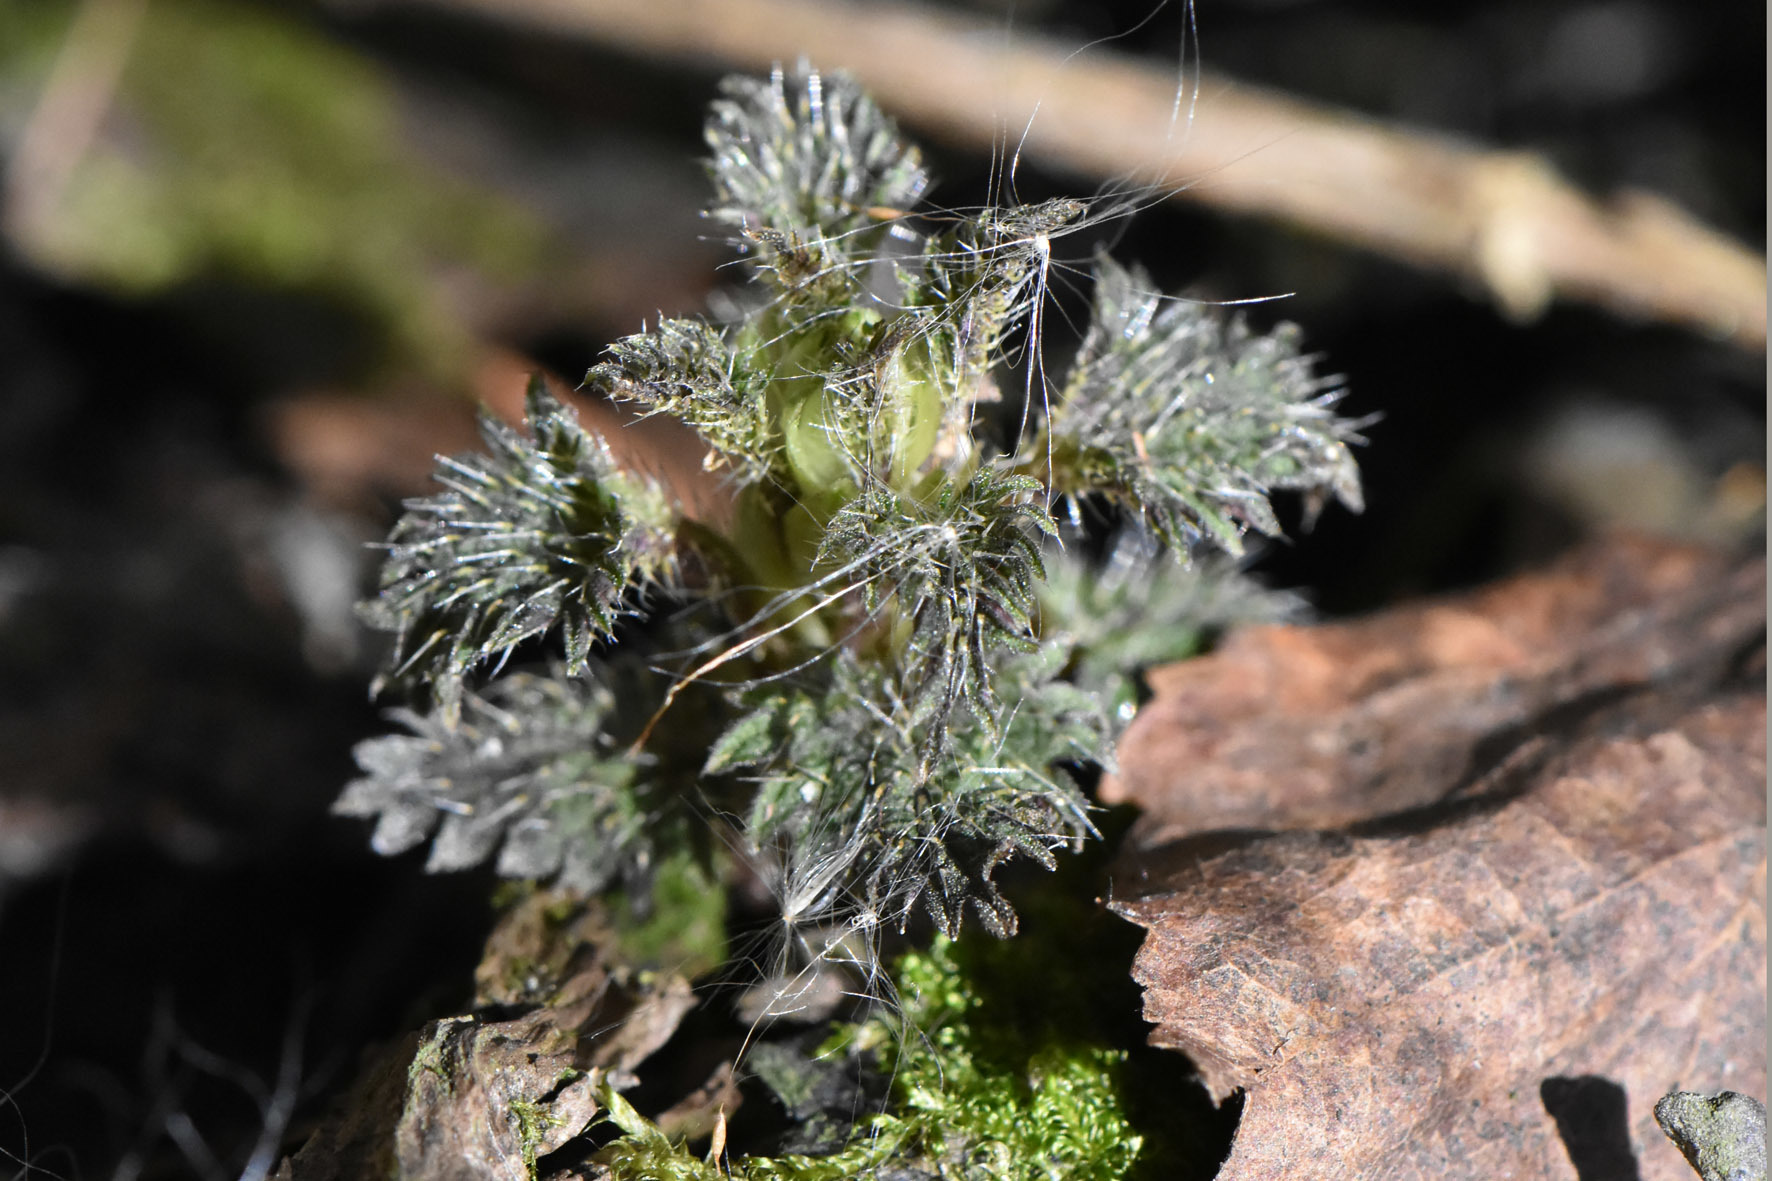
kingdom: Plantae
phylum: Tracheophyta
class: Magnoliopsida
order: Rosales
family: Urticaceae
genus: Urtica
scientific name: Urtica dioica
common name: Common nettle
